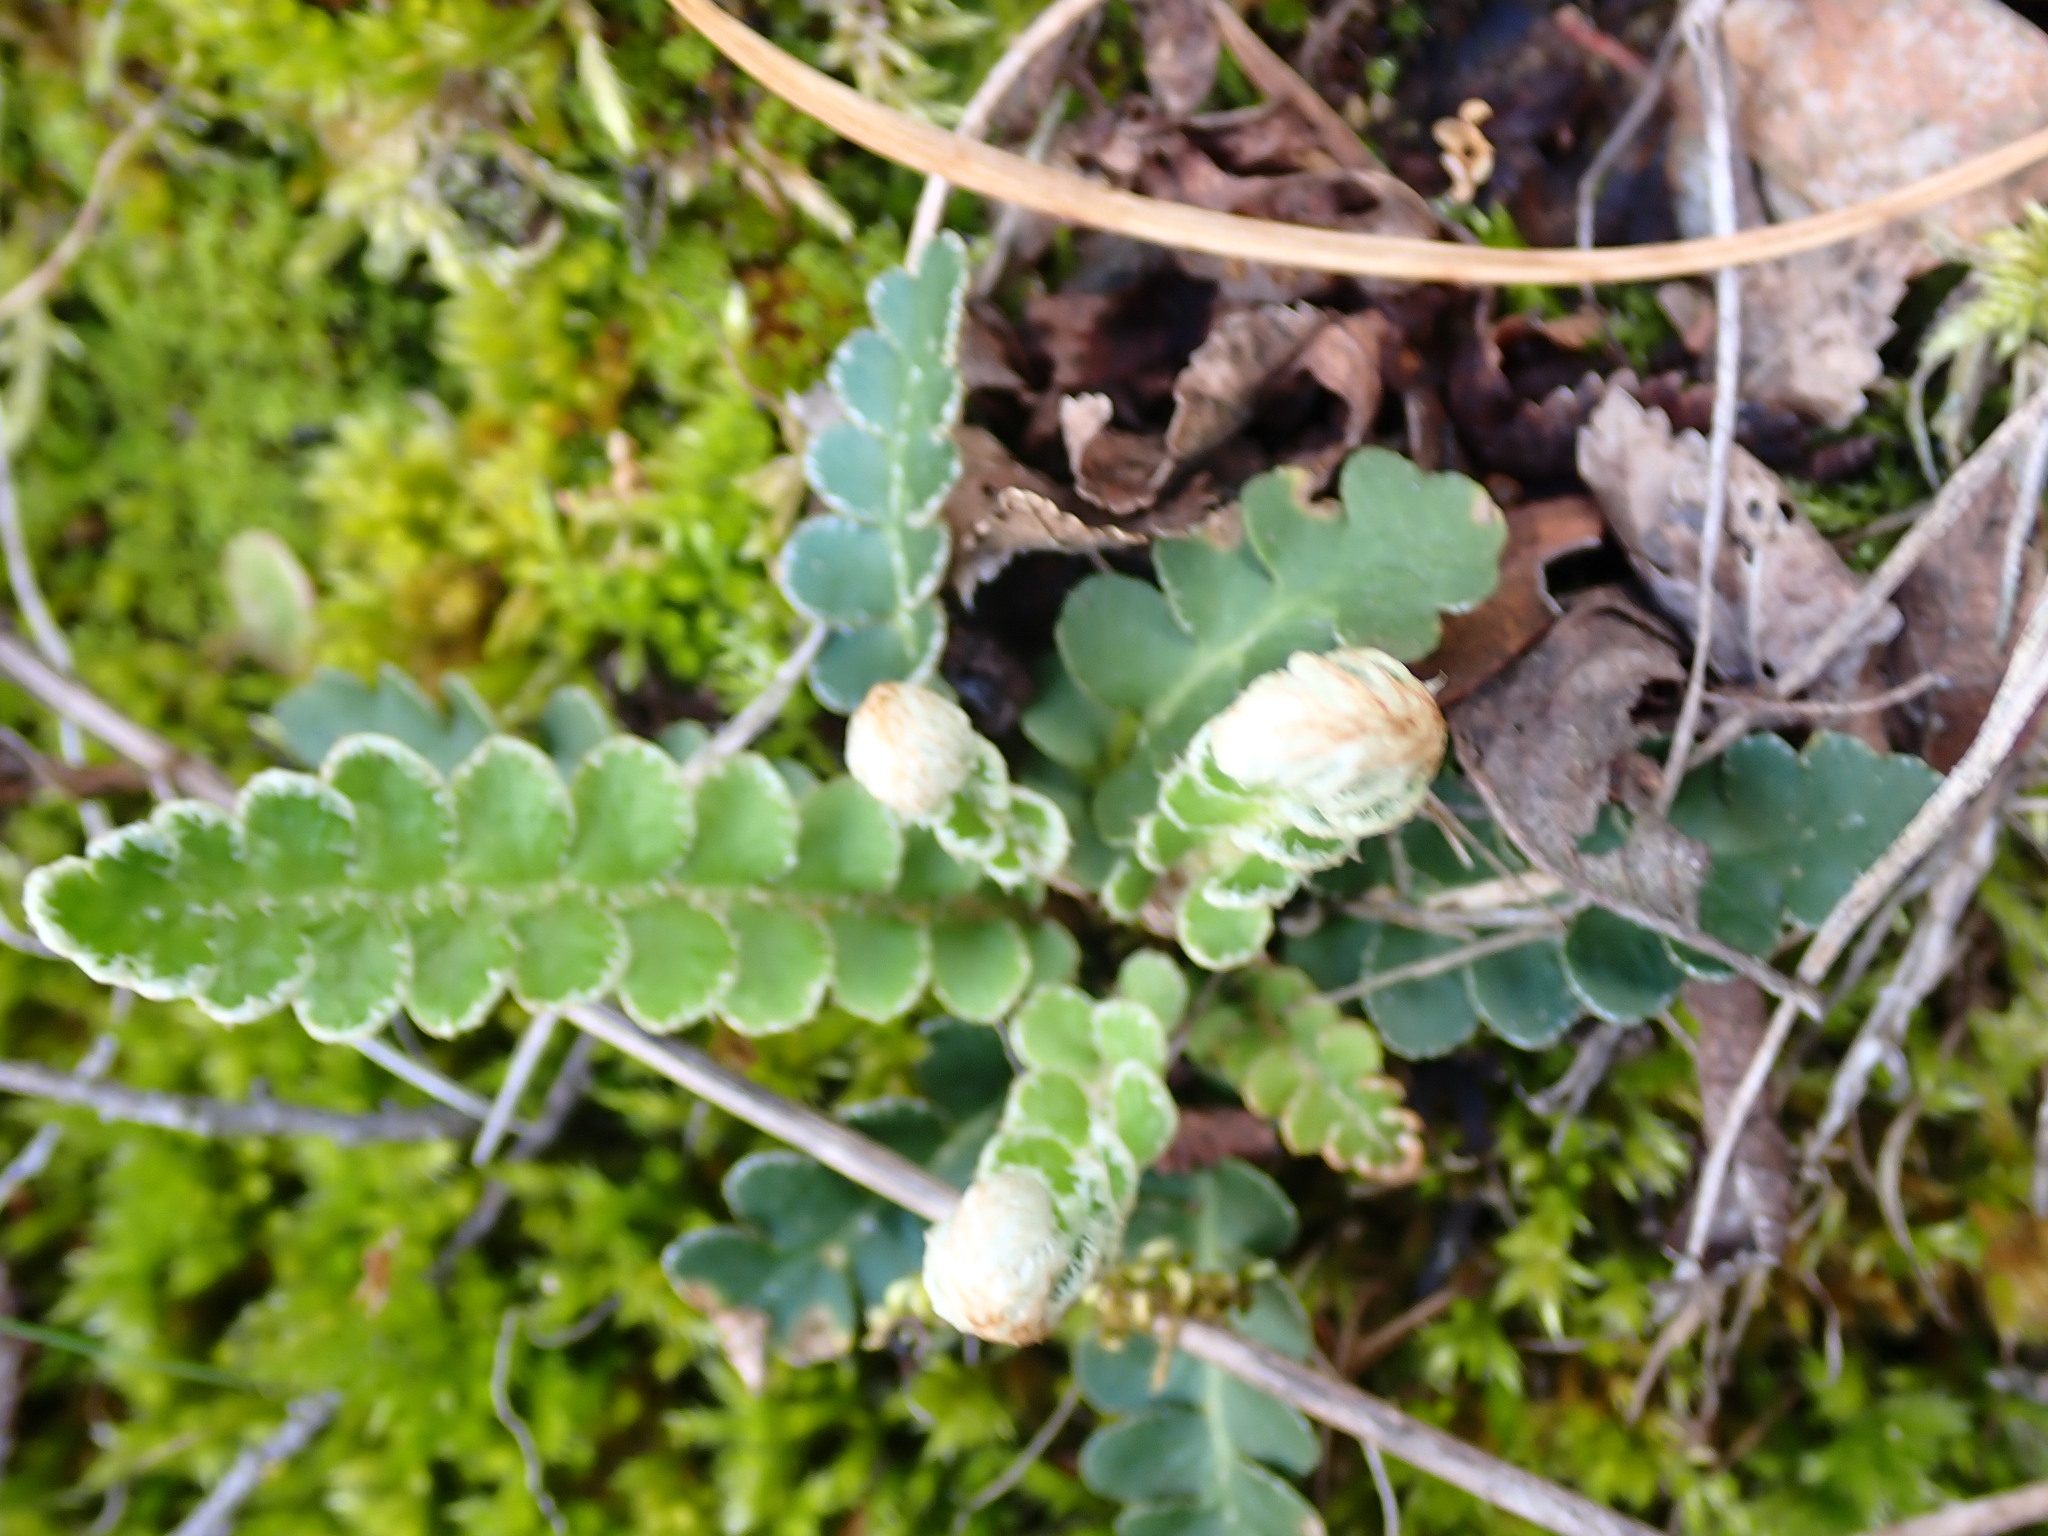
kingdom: Plantae
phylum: Tracheophyta
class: Polypodiopsida
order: Polypodiales
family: Aspleniaceae
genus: Asplenium
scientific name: Asplenium ceterach
